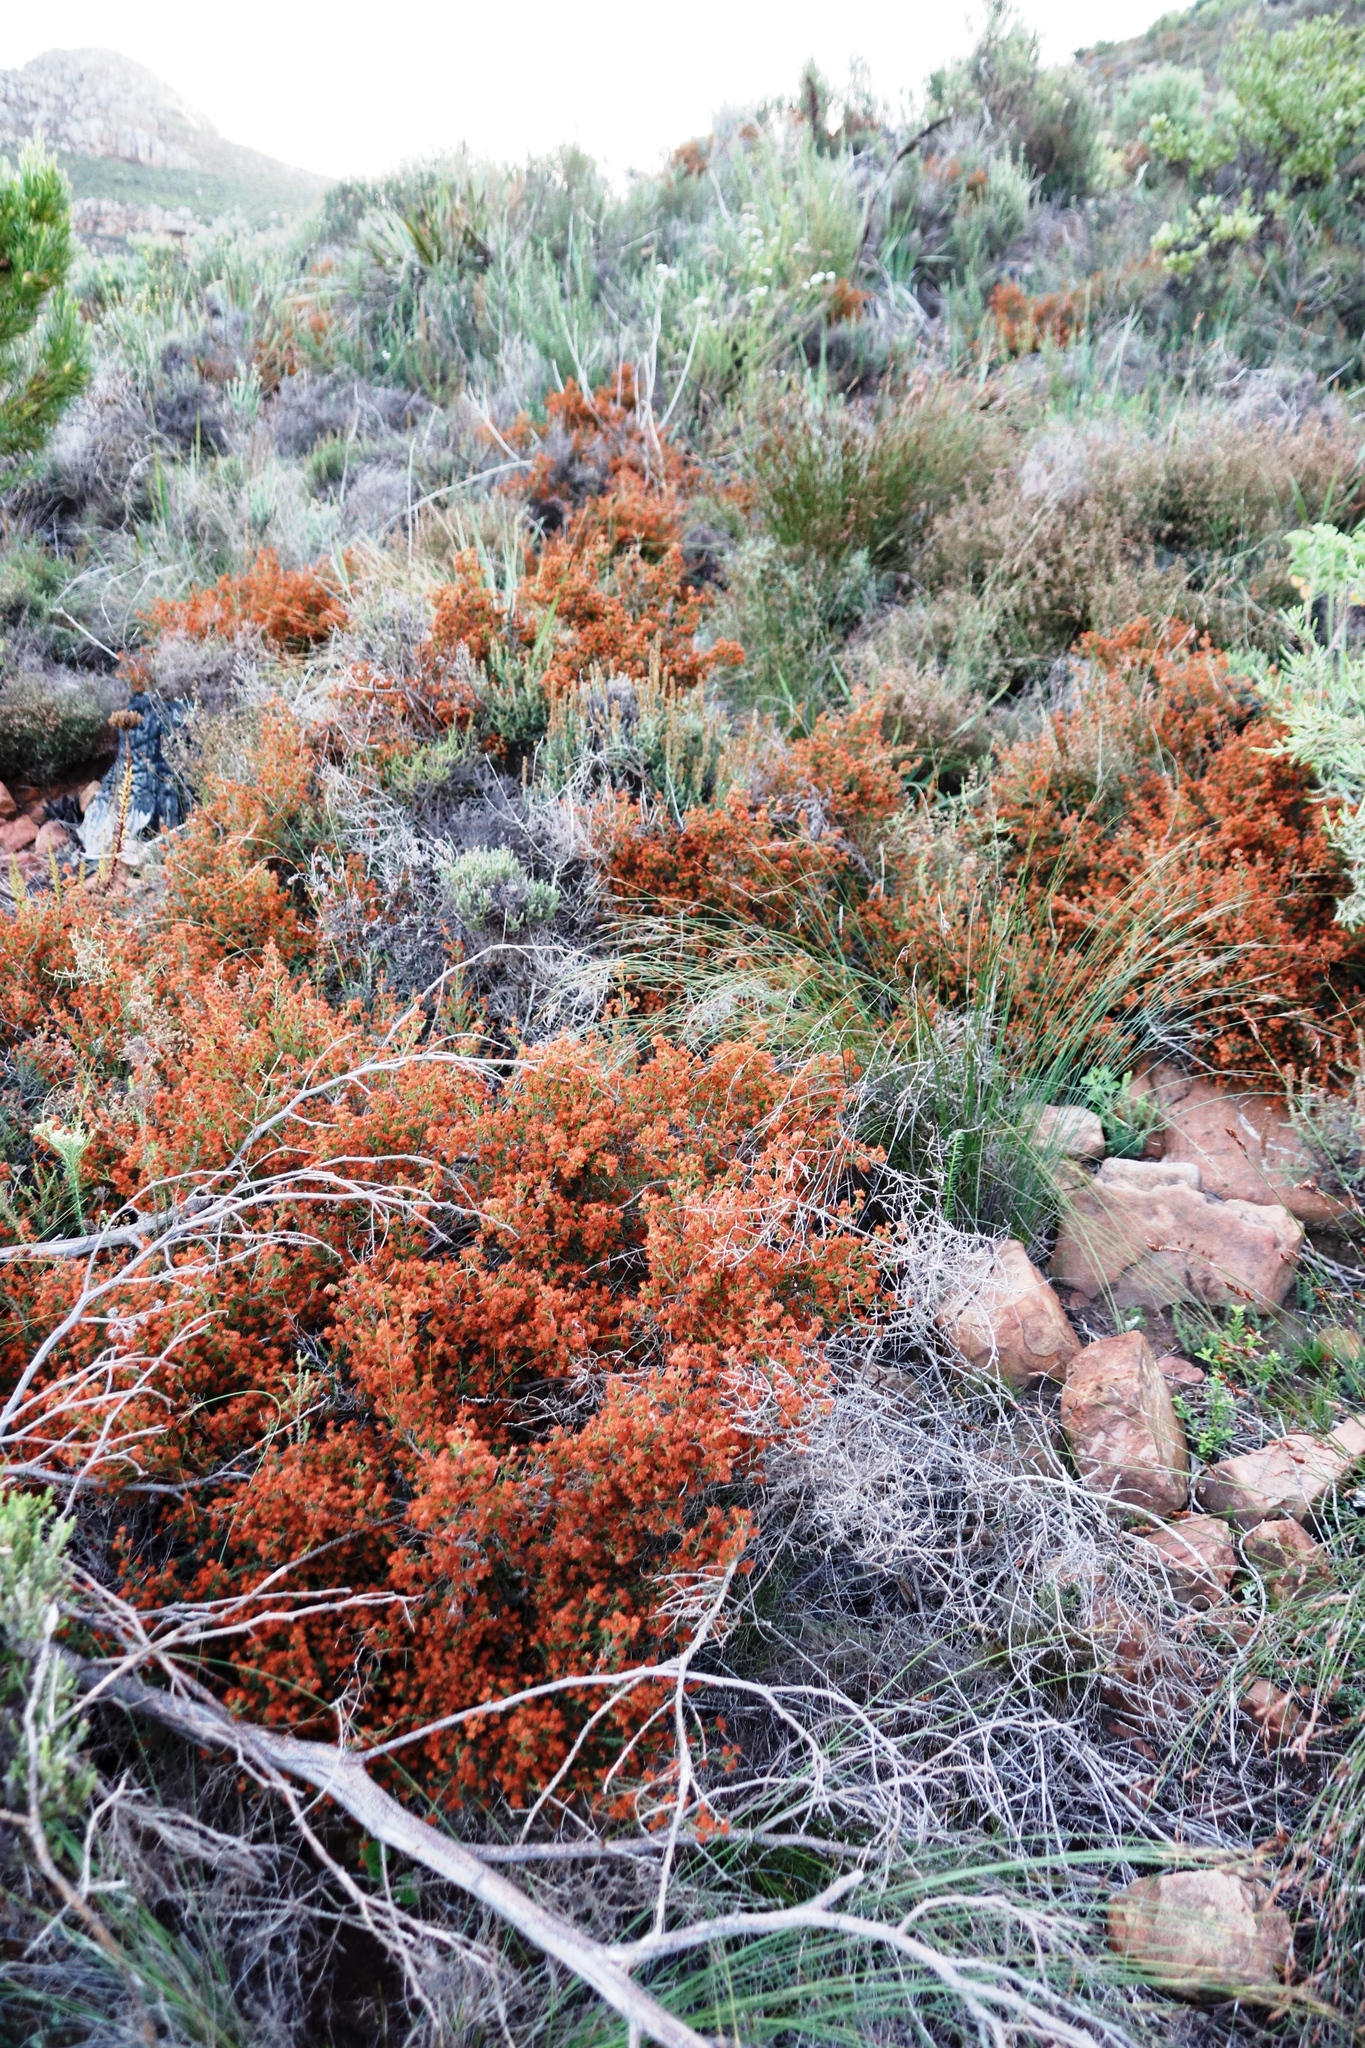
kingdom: Plantae
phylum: Tracheophyta
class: Magnoliopsida
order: Ericales
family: Ericaceae
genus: Erica
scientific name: Erica nudiflora
